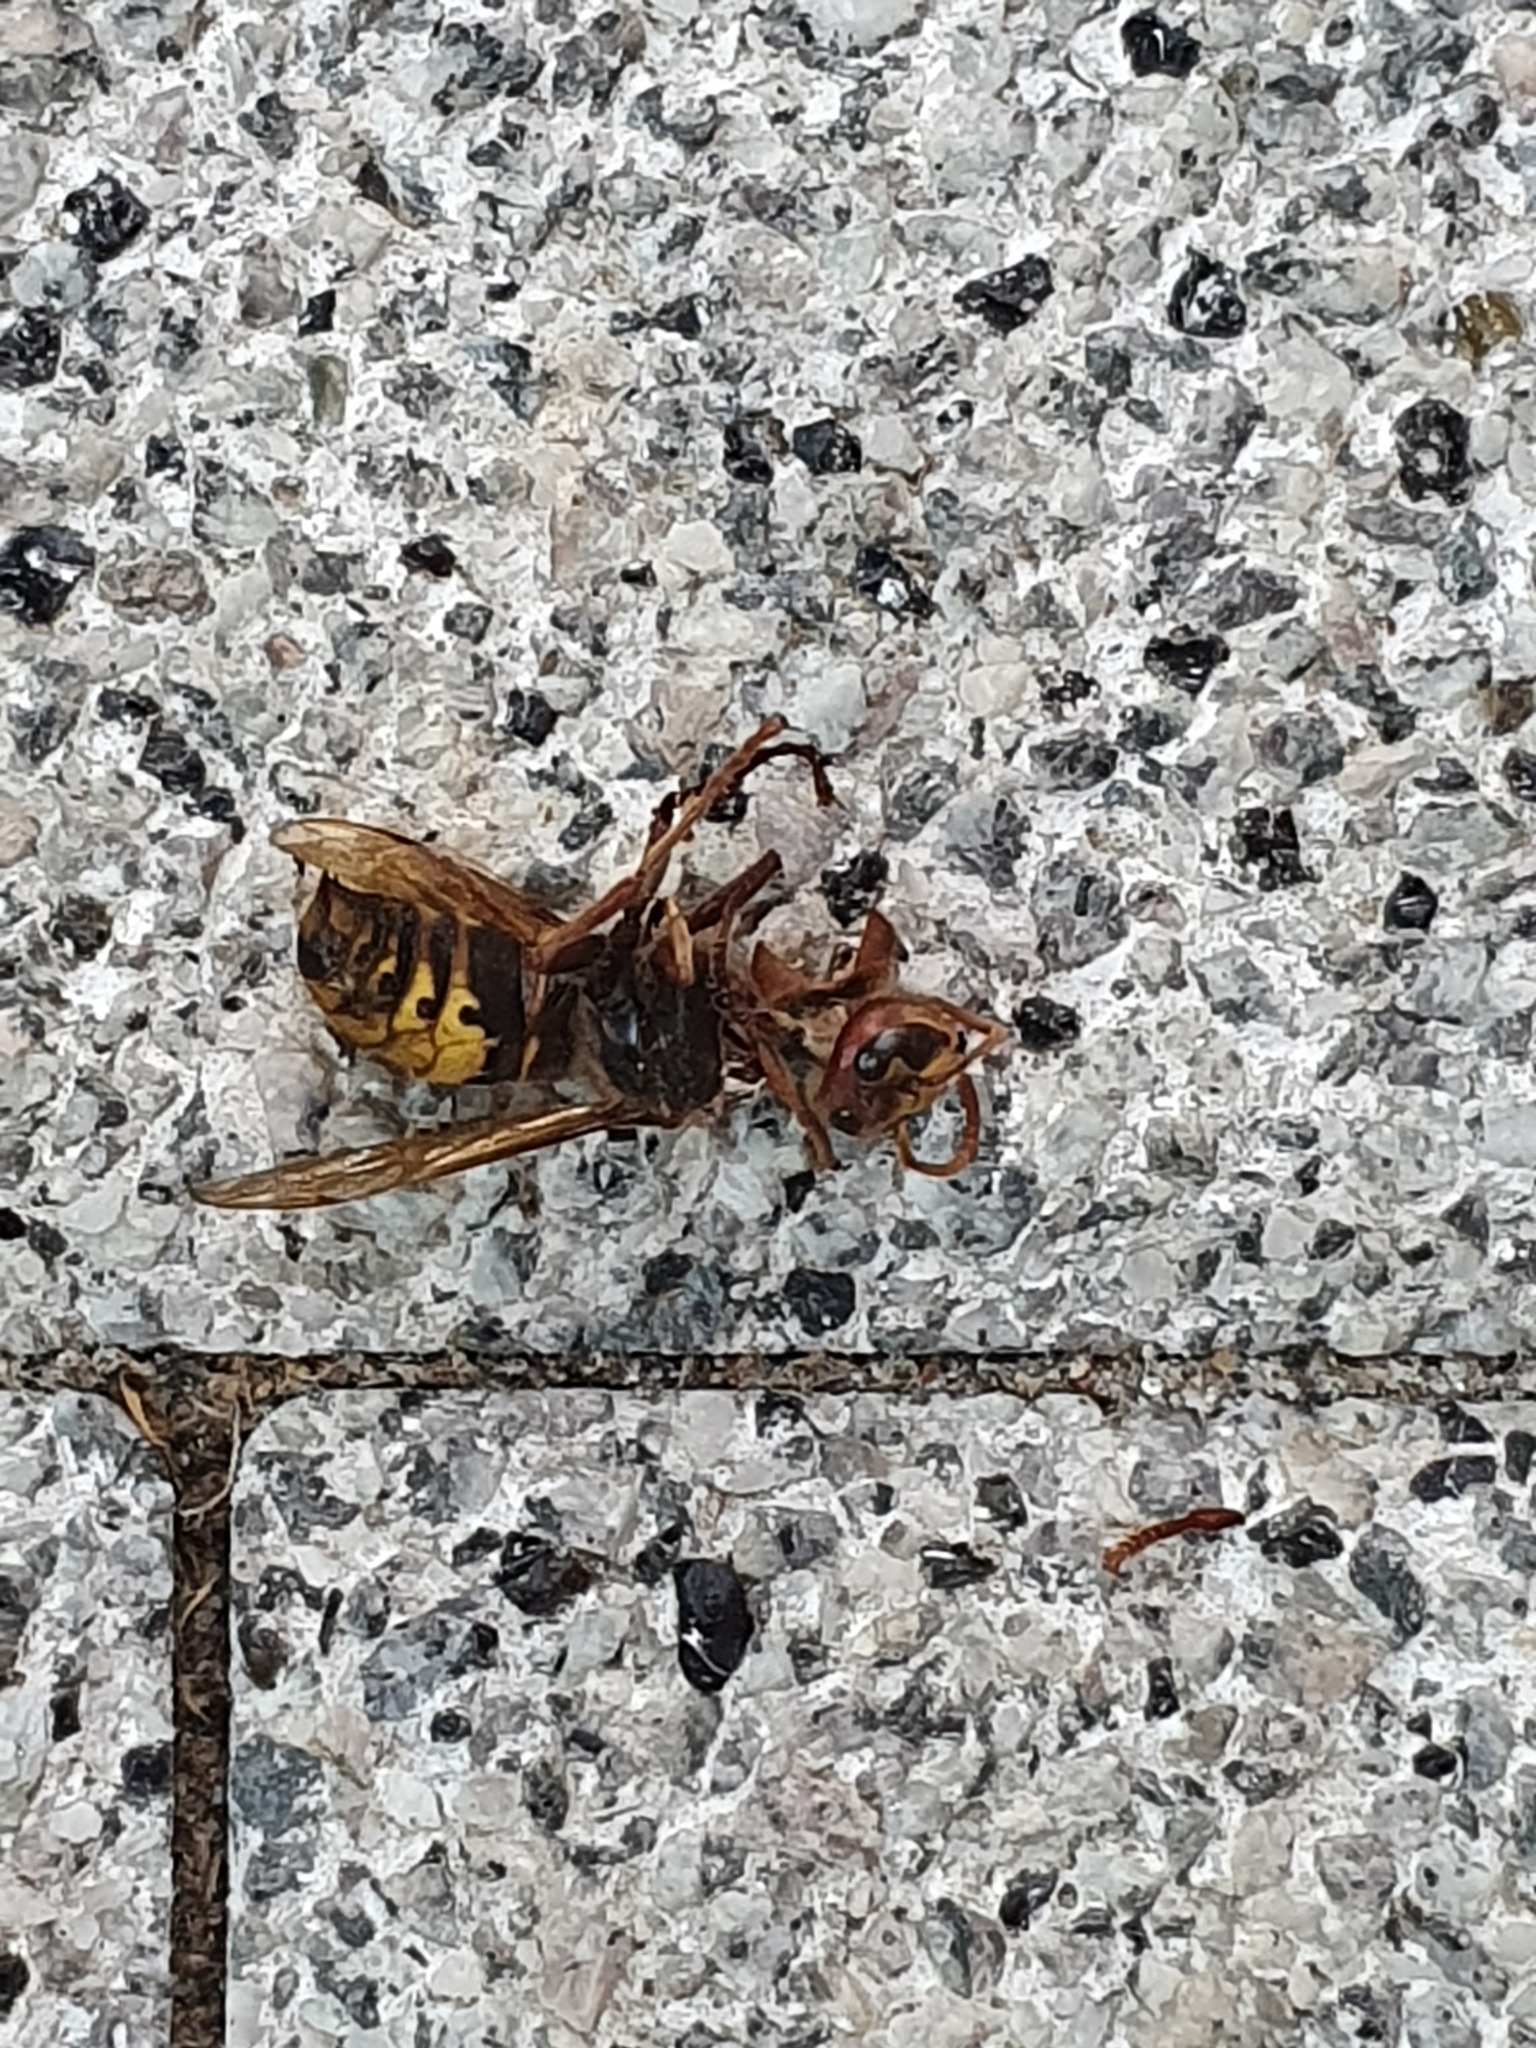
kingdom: Animalia
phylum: Arthropoda
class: Insecta
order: Hymenoptera
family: Vespidae
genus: Vespa
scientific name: Vespa crabro
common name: Hornet
